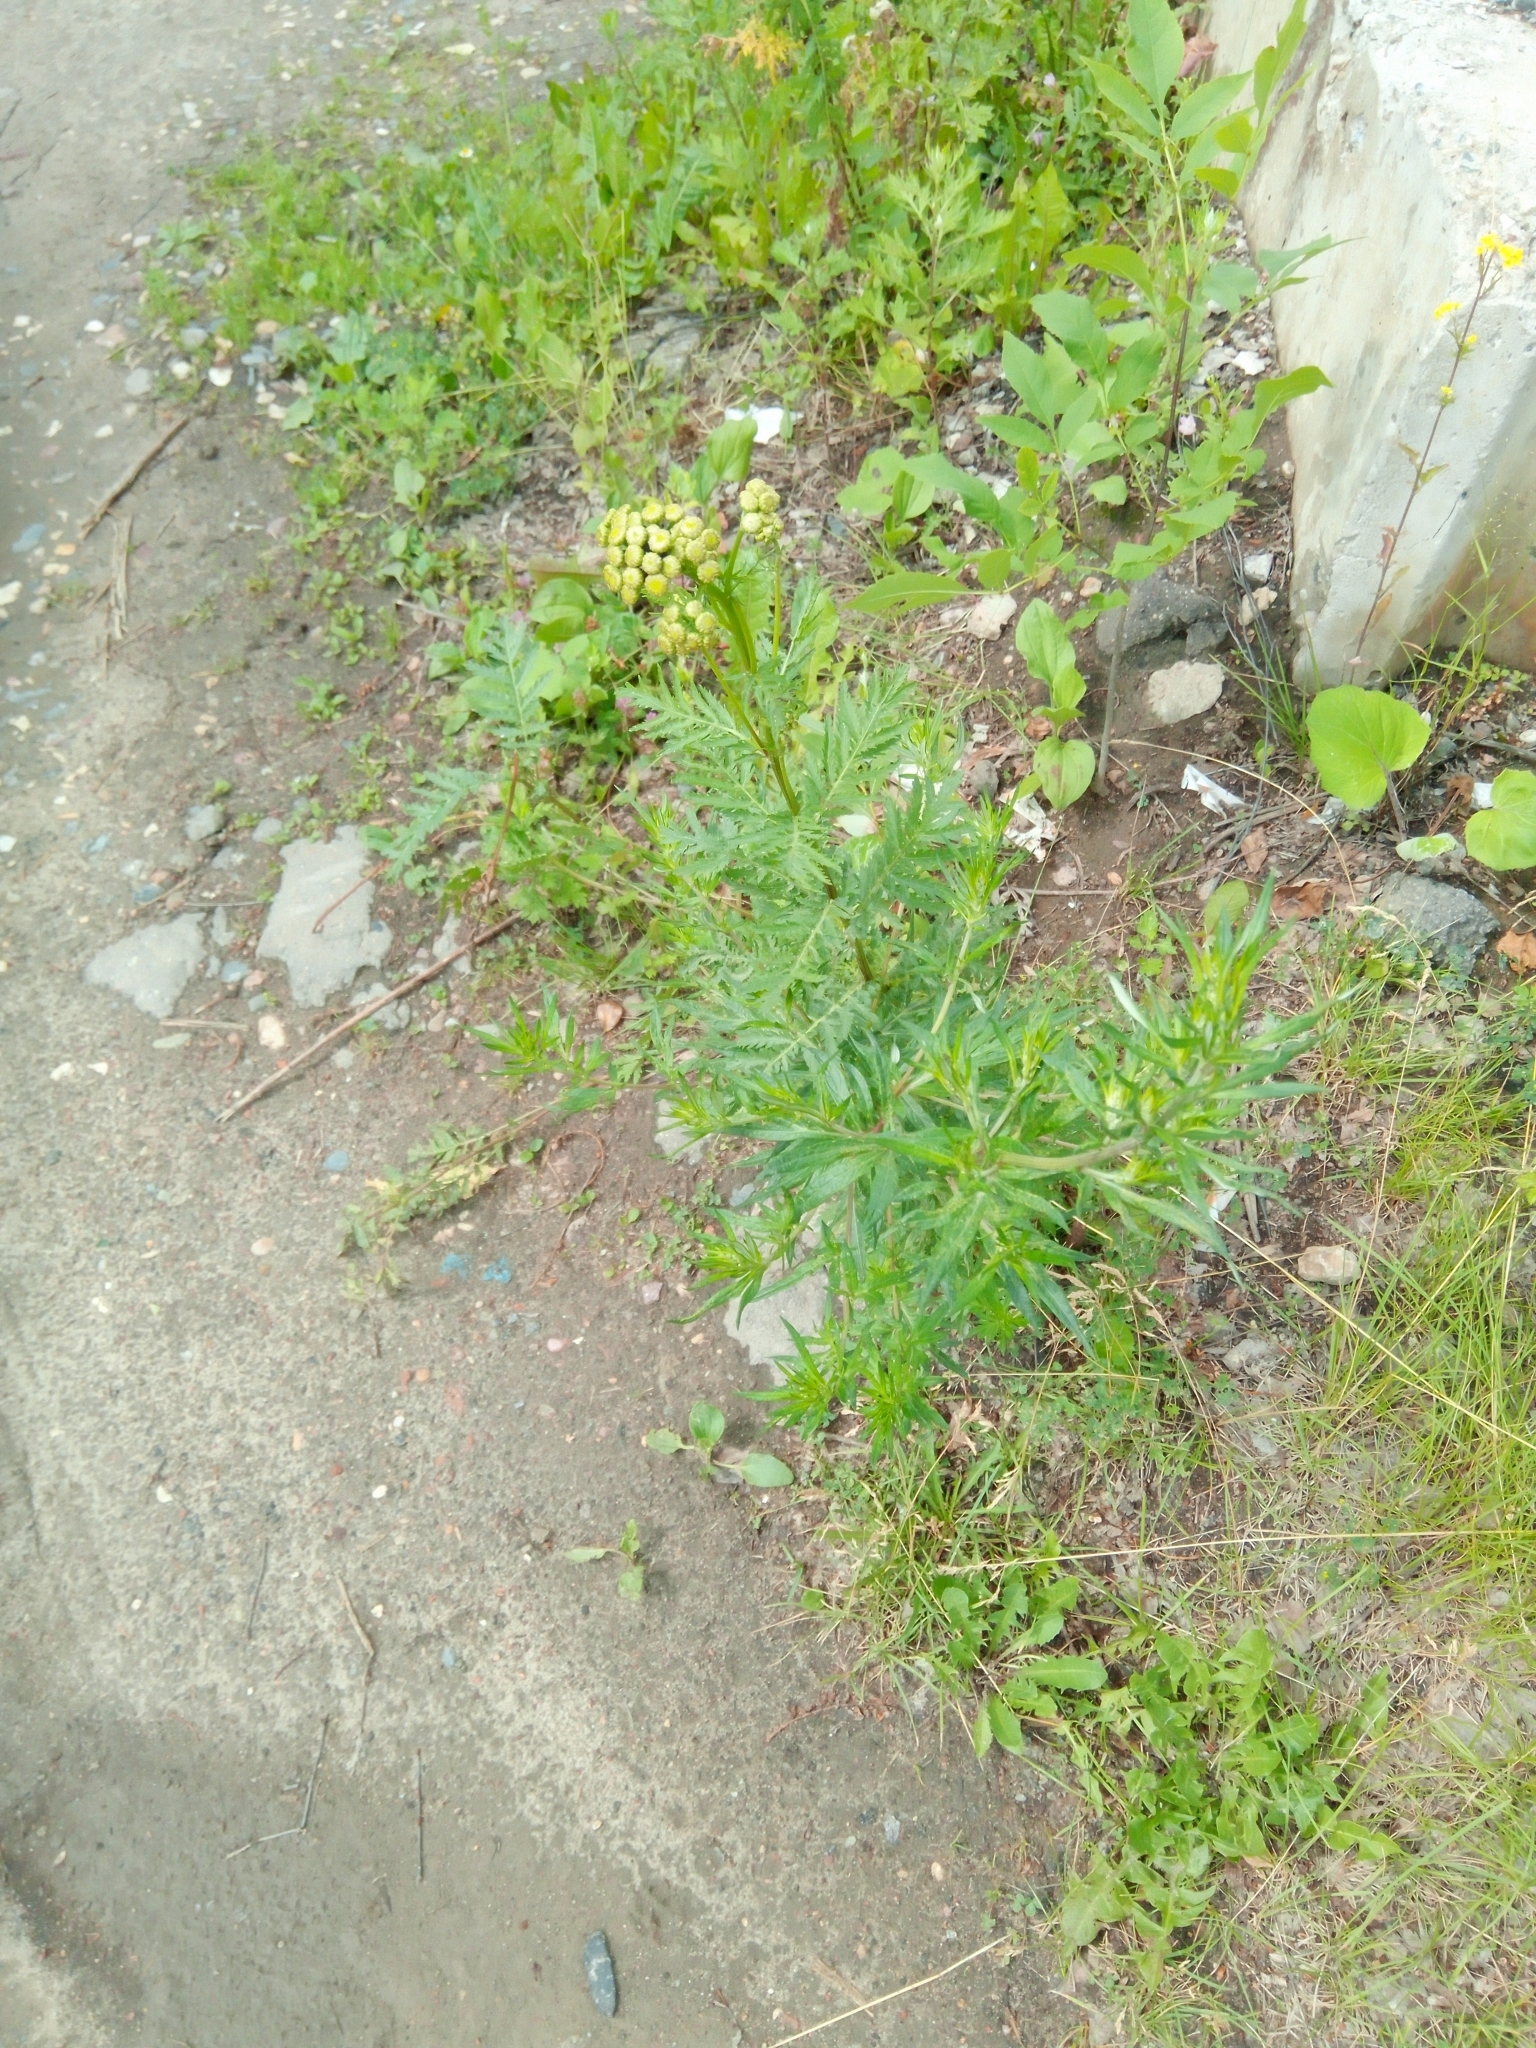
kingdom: Plantae
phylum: Tracheophyta
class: Magnoliopsida
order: Asterales
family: Asteraceae
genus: Tanacetum
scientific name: Tanacetum vulgare
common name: Common tansy
